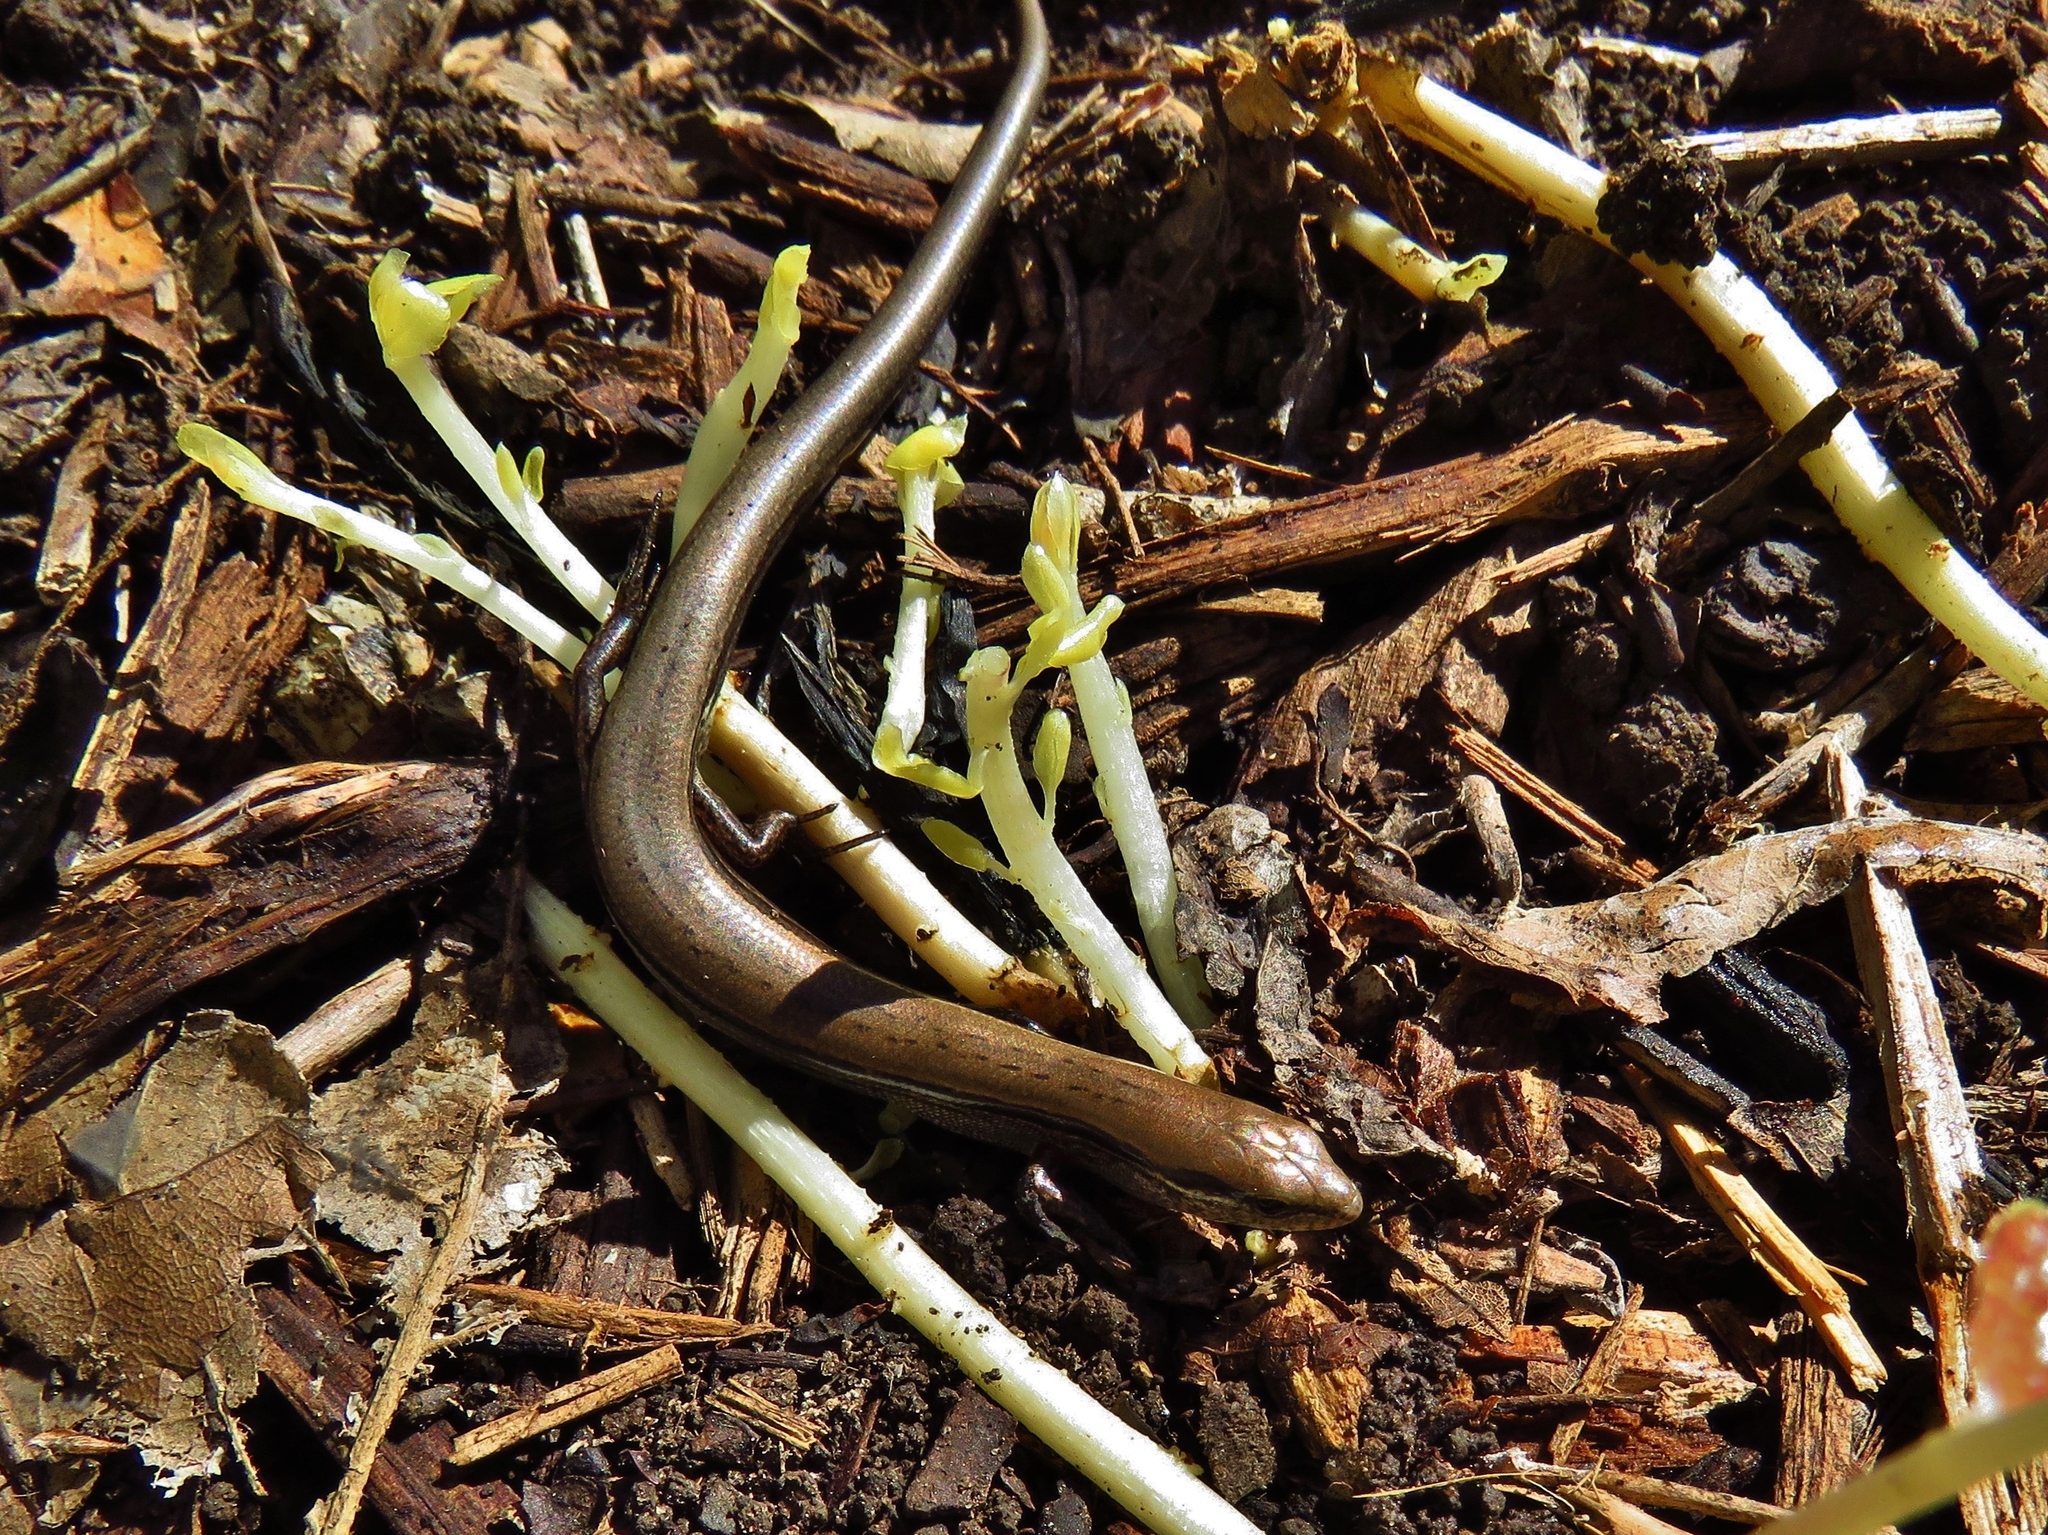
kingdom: Animalia
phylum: Chordata
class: Squamata
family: Scincidae
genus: Scincella
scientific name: Scincella lateralis
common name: Ground skink
